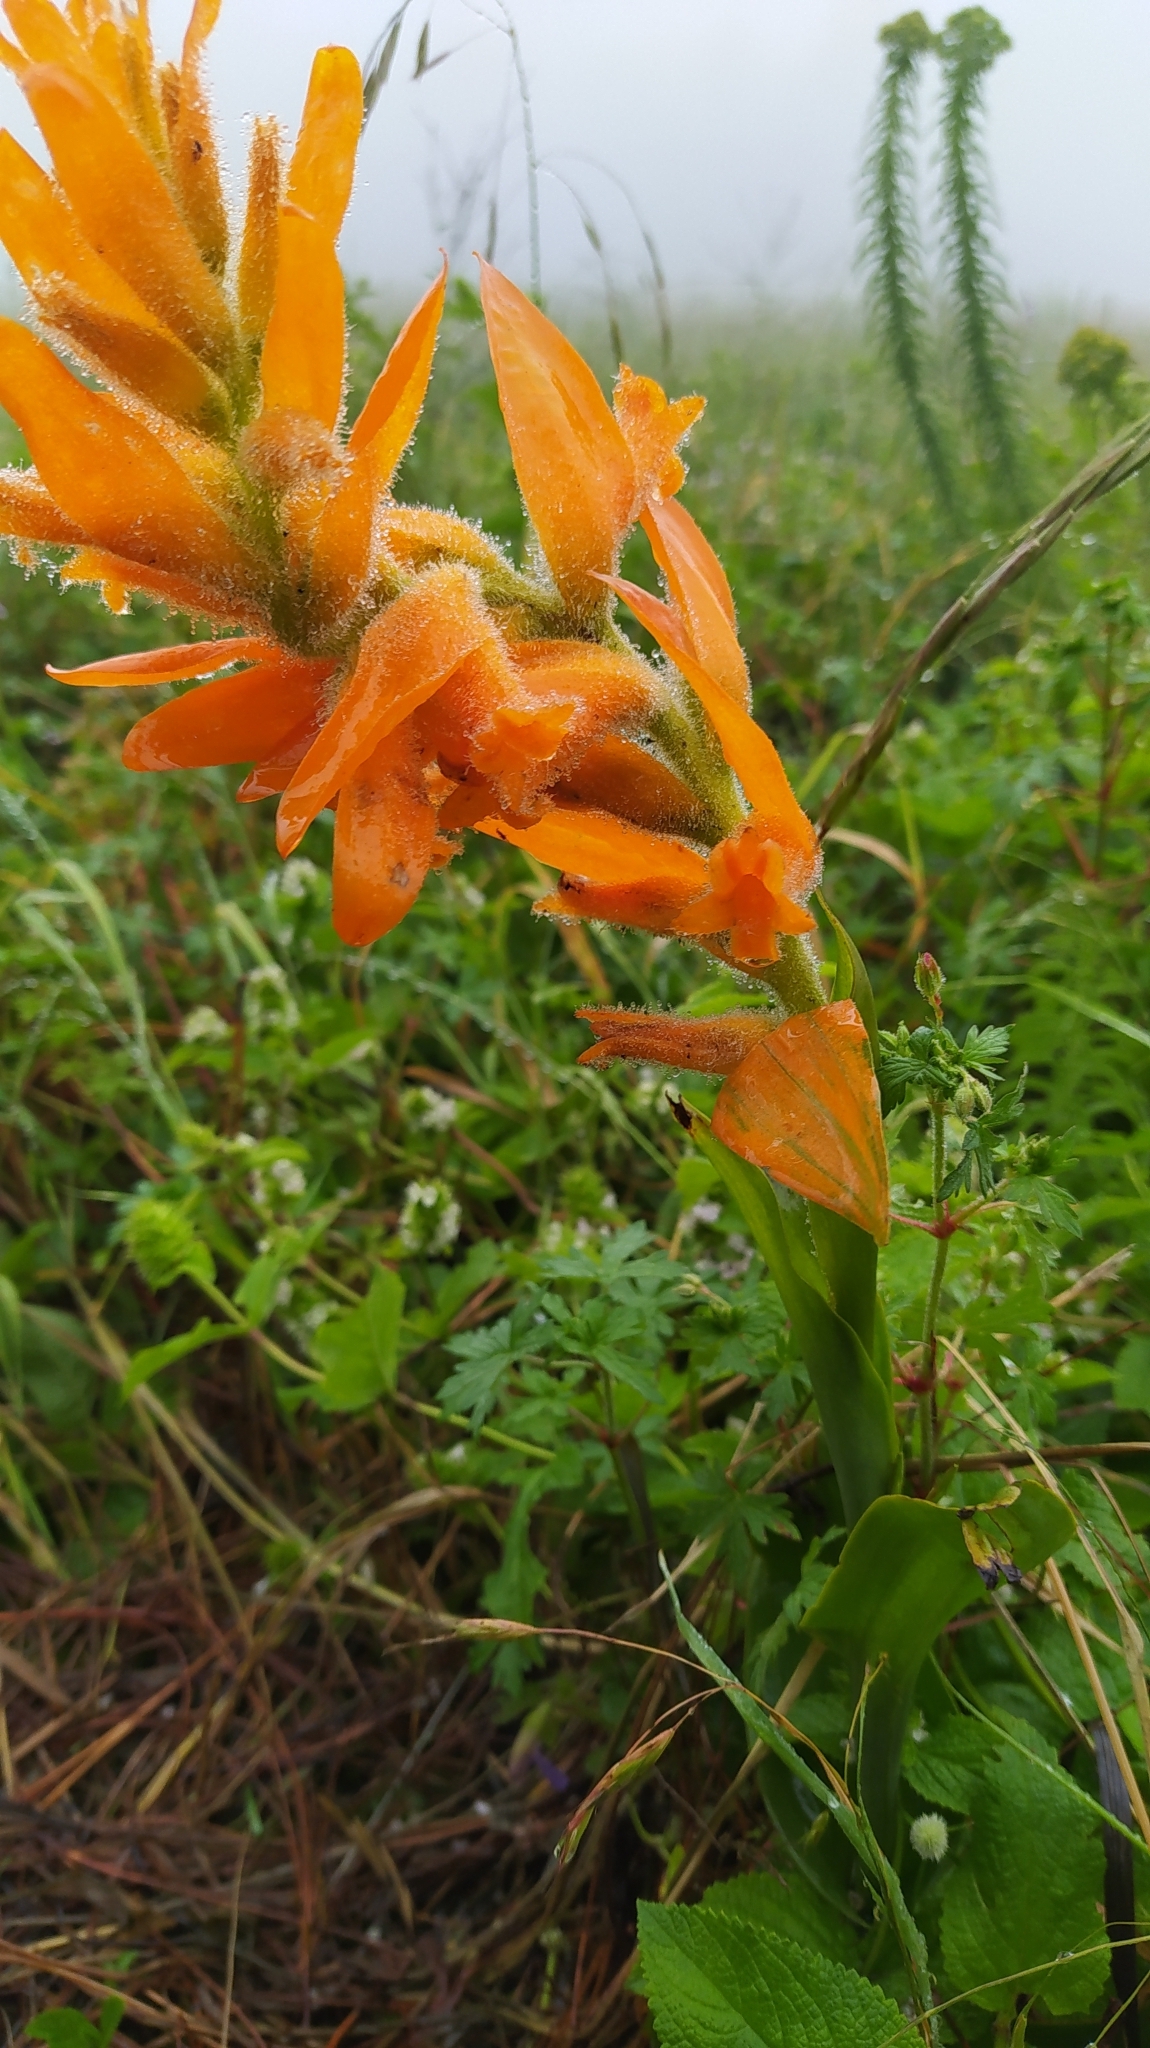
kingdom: Plantae
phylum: Tracheophyta
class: Liliopsida
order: Asparagales
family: Orchidaceae
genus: Dichromanthus
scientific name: Dichromanthus aurantiacus
